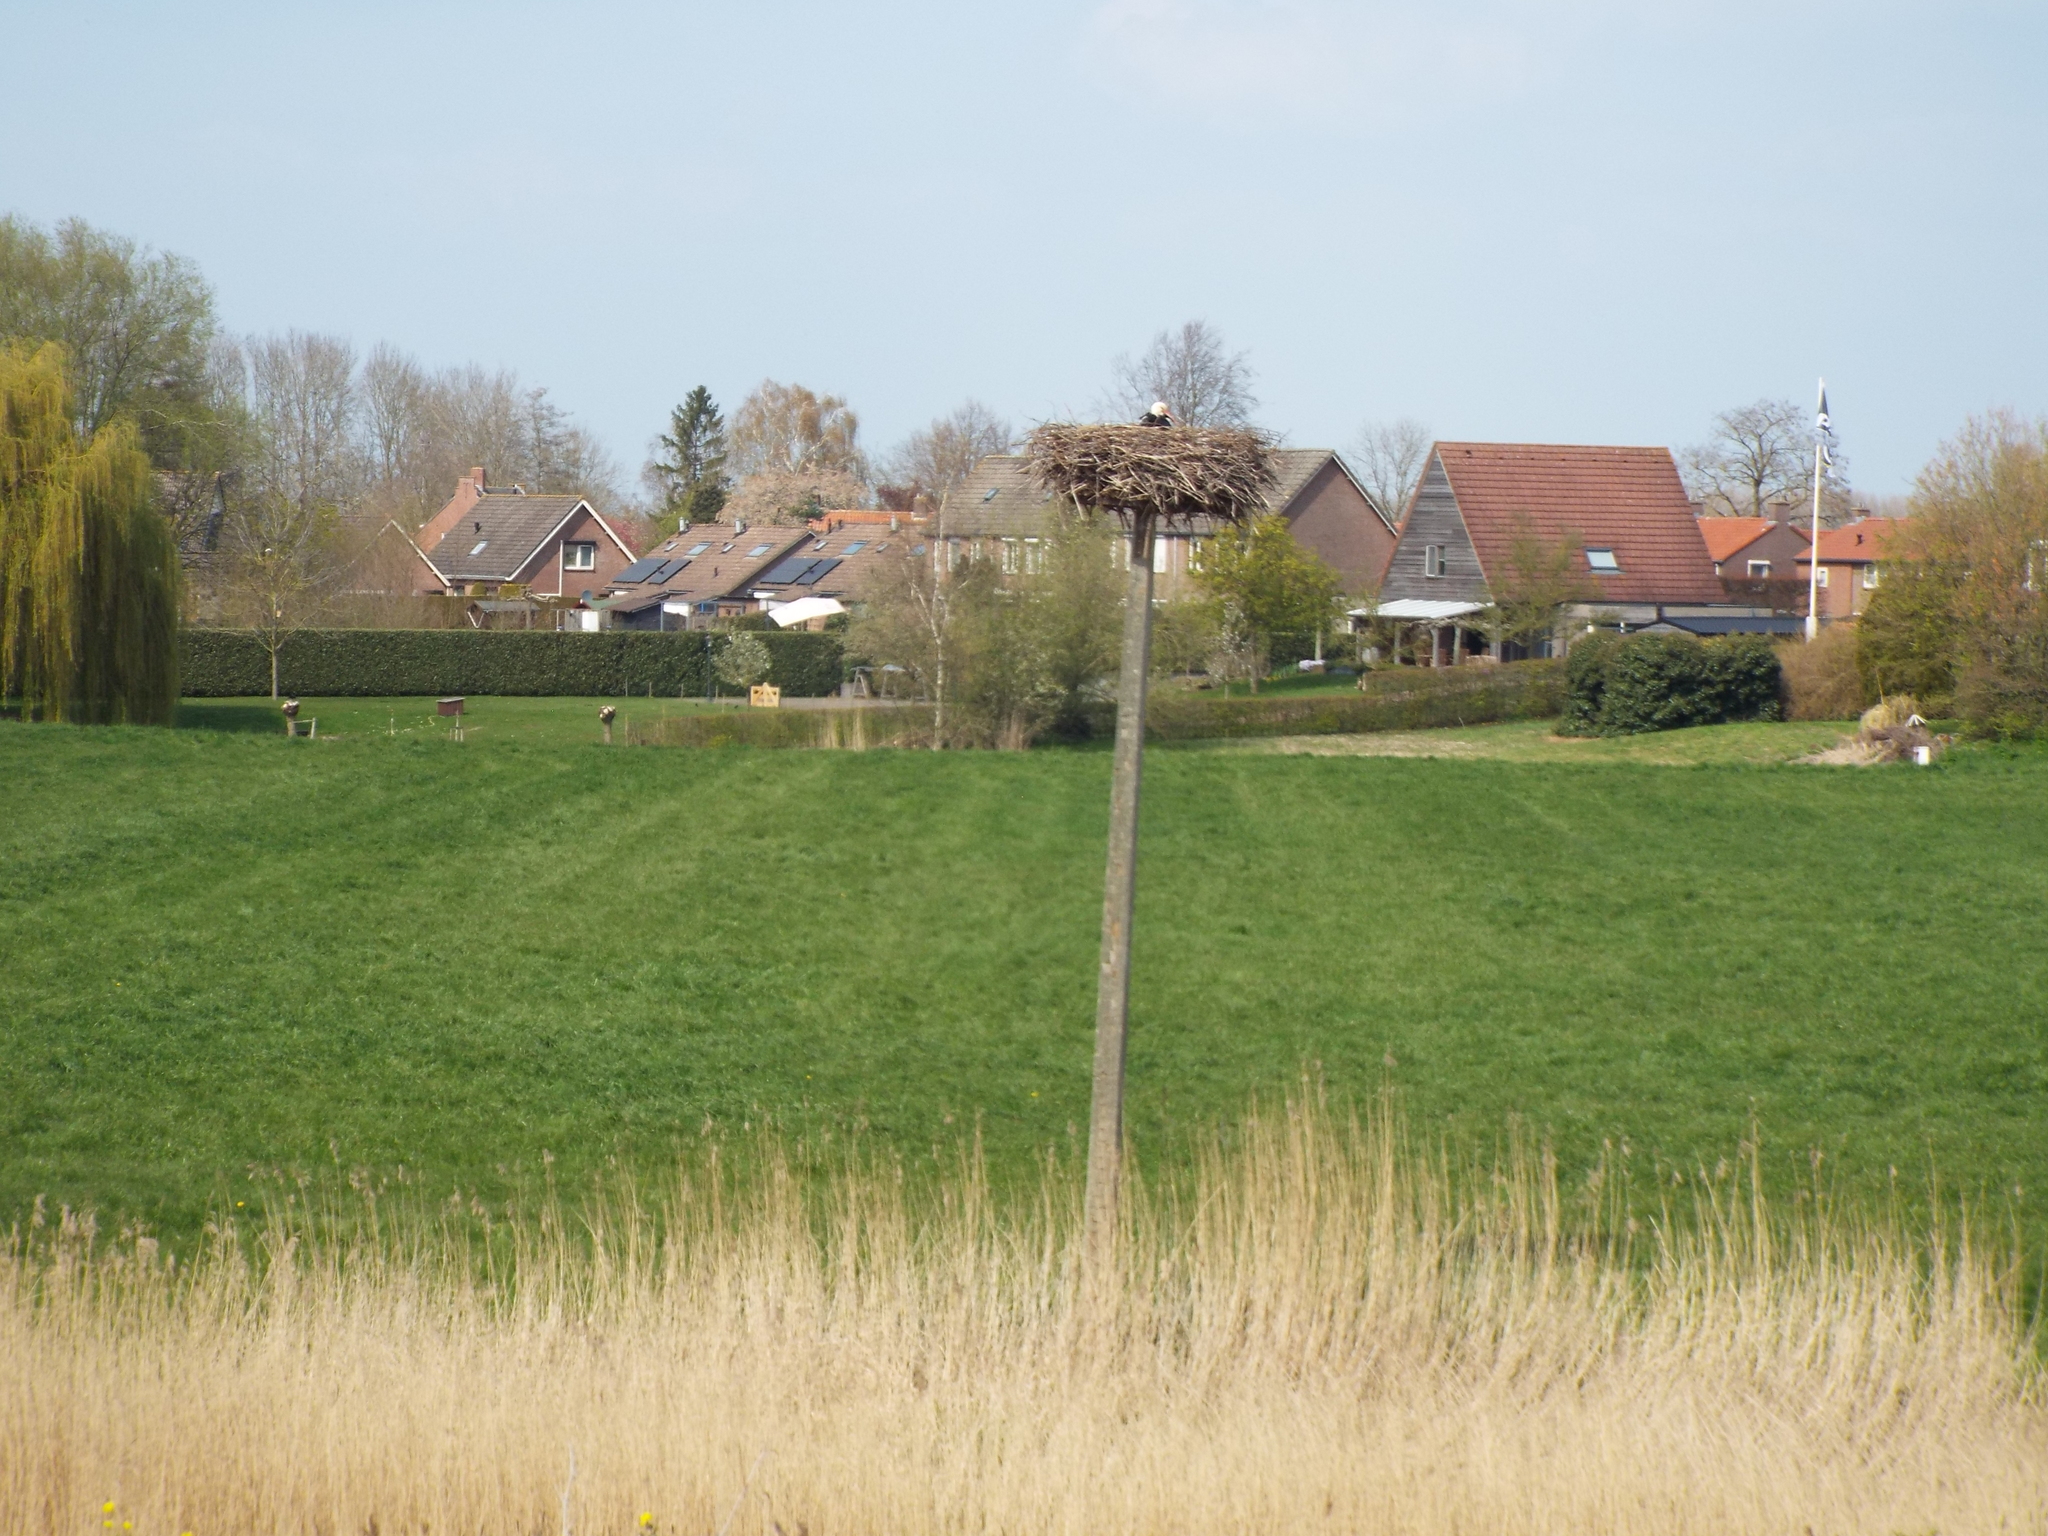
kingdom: Animalia
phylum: Chordata
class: Aves
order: Ciconiiformes
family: Ciconiidae
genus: Ciconia
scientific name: Ciconia ciconia
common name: White stork
